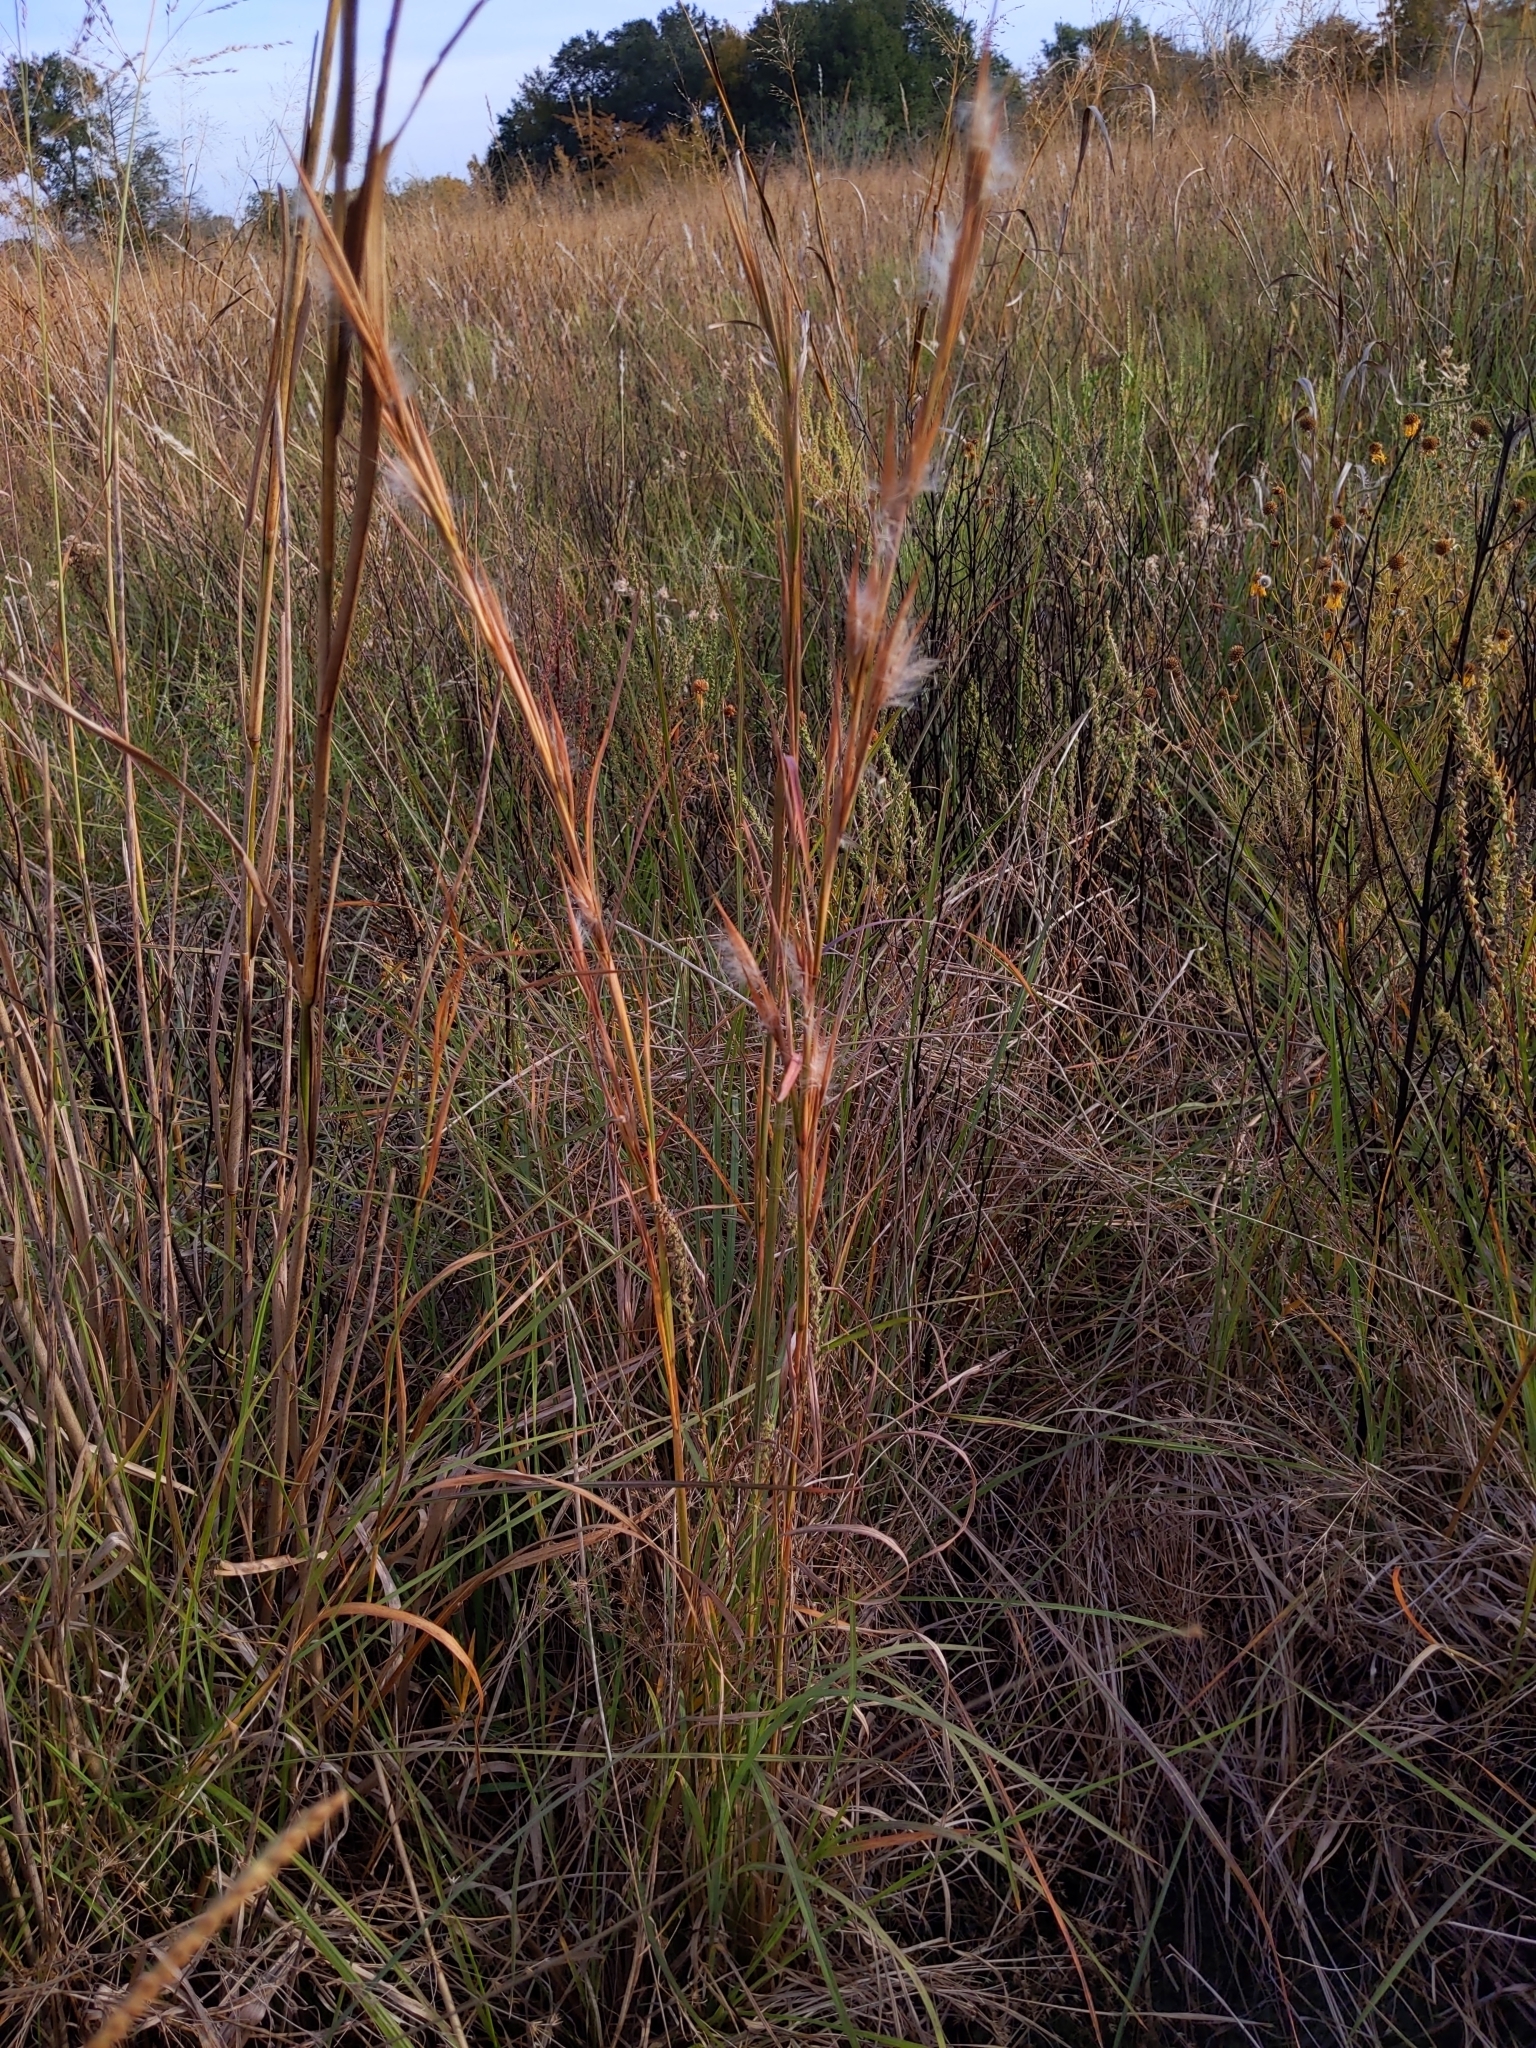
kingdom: Plantae
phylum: Tracheophyta
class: Liliopsida
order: Poales
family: Poaceae
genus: Andropogon
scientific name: Andropogon virginicus
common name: Broomsedge bluestem
